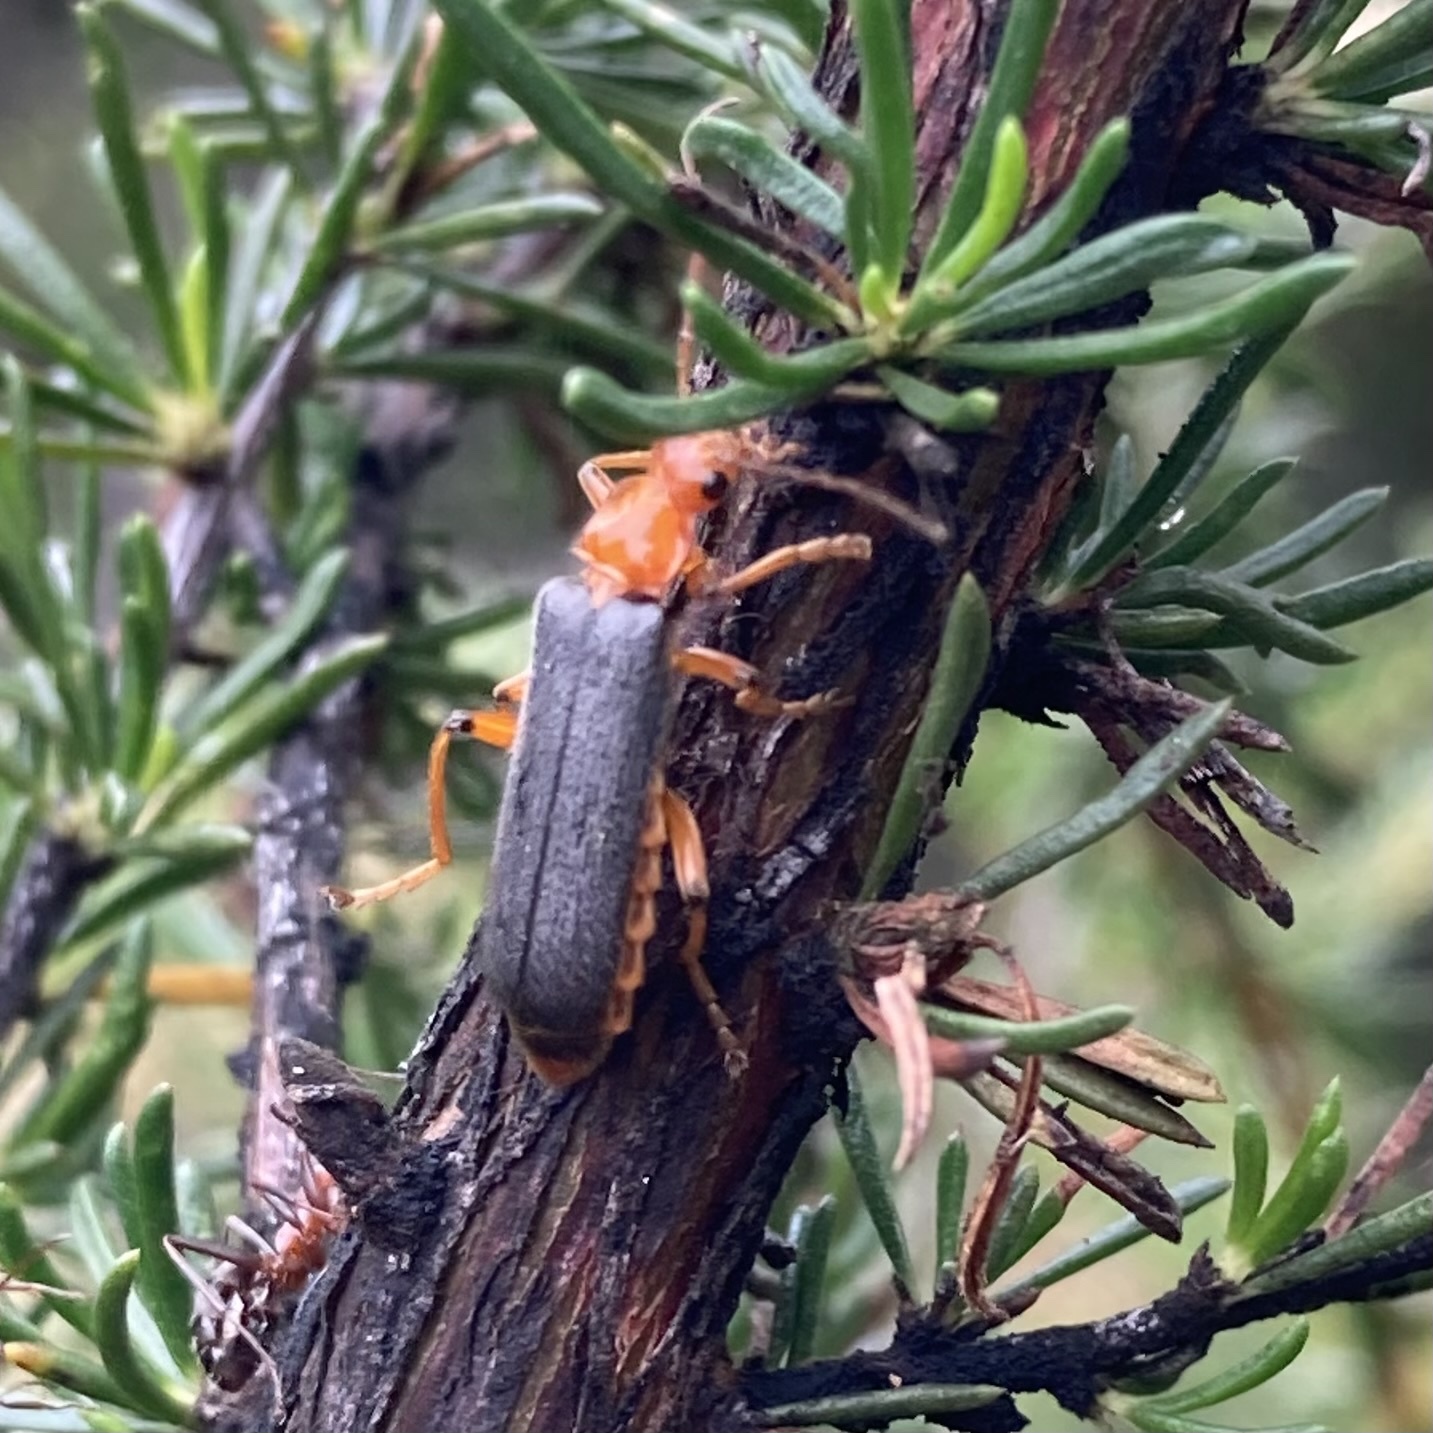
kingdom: Animalia
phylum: Arthropoda
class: Insecta
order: Coleoptera
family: Cantharidae
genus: Pacificanthia
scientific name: Pacificanthia consors
